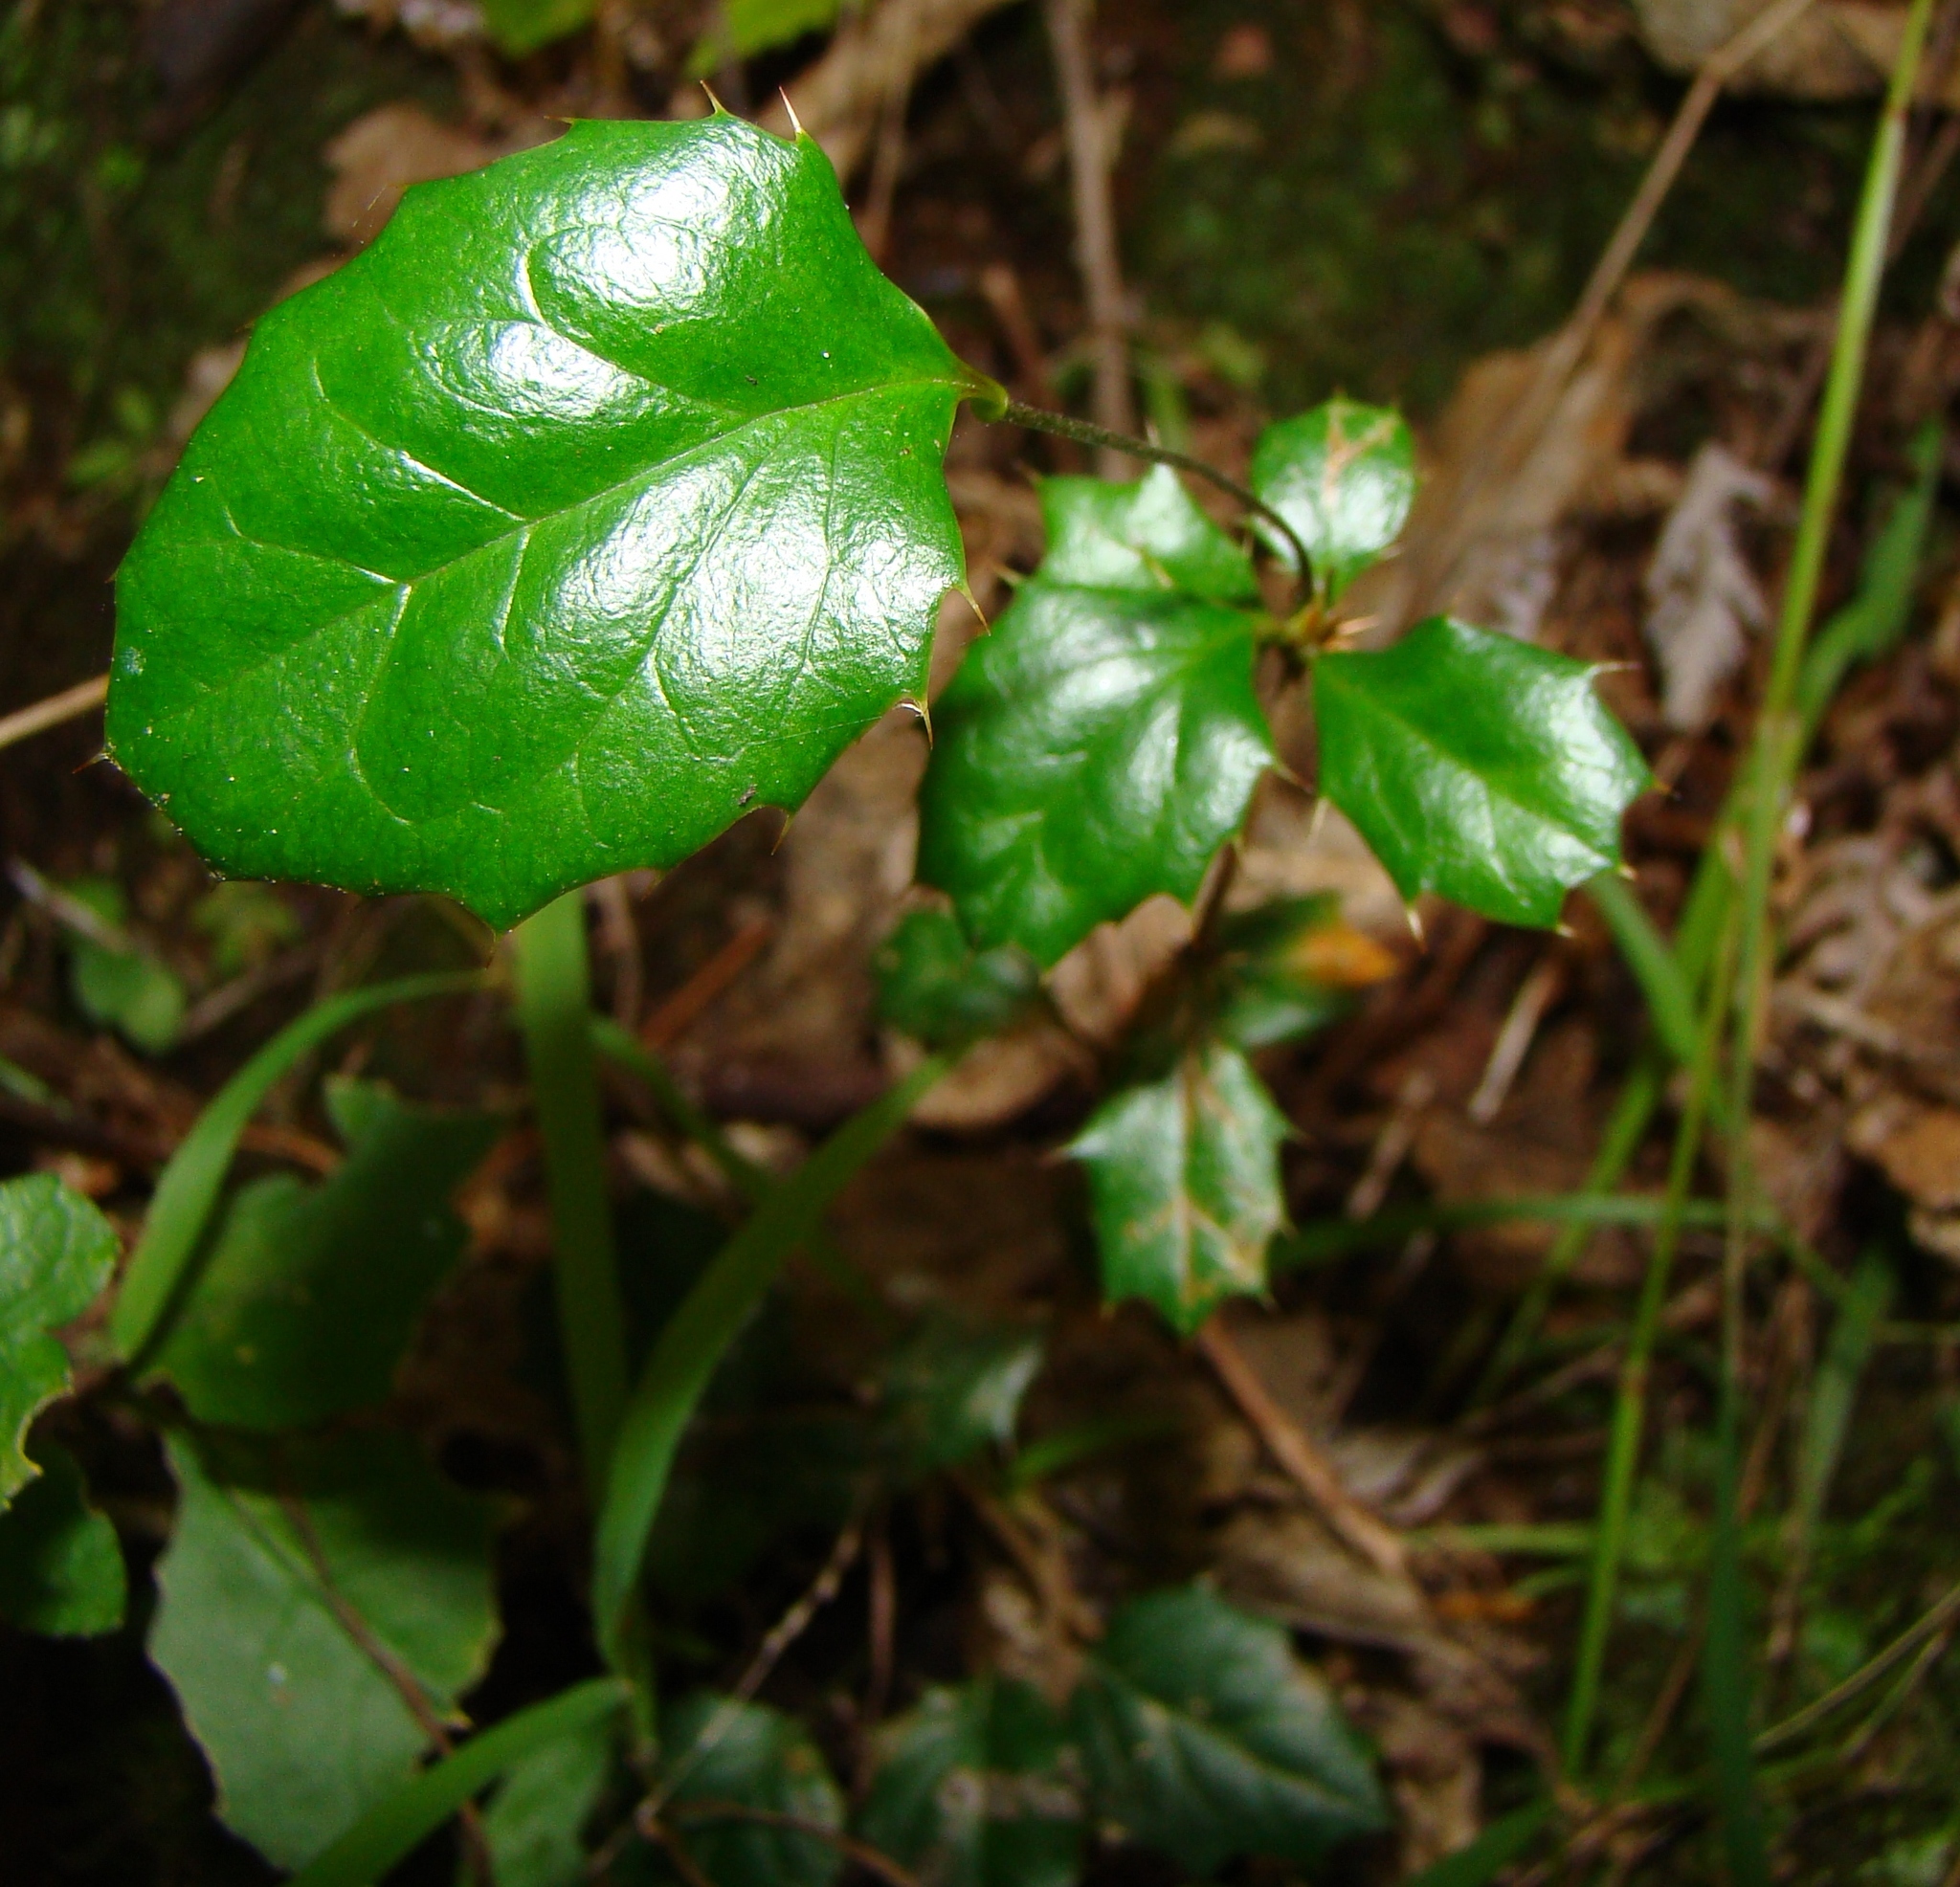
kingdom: Plantae
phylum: Tracheophyta
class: Magnoliopsida
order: Ranunculales
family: Berberidaceae
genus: Berberis
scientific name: Berberis darwinii
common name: Darwin's barberry
